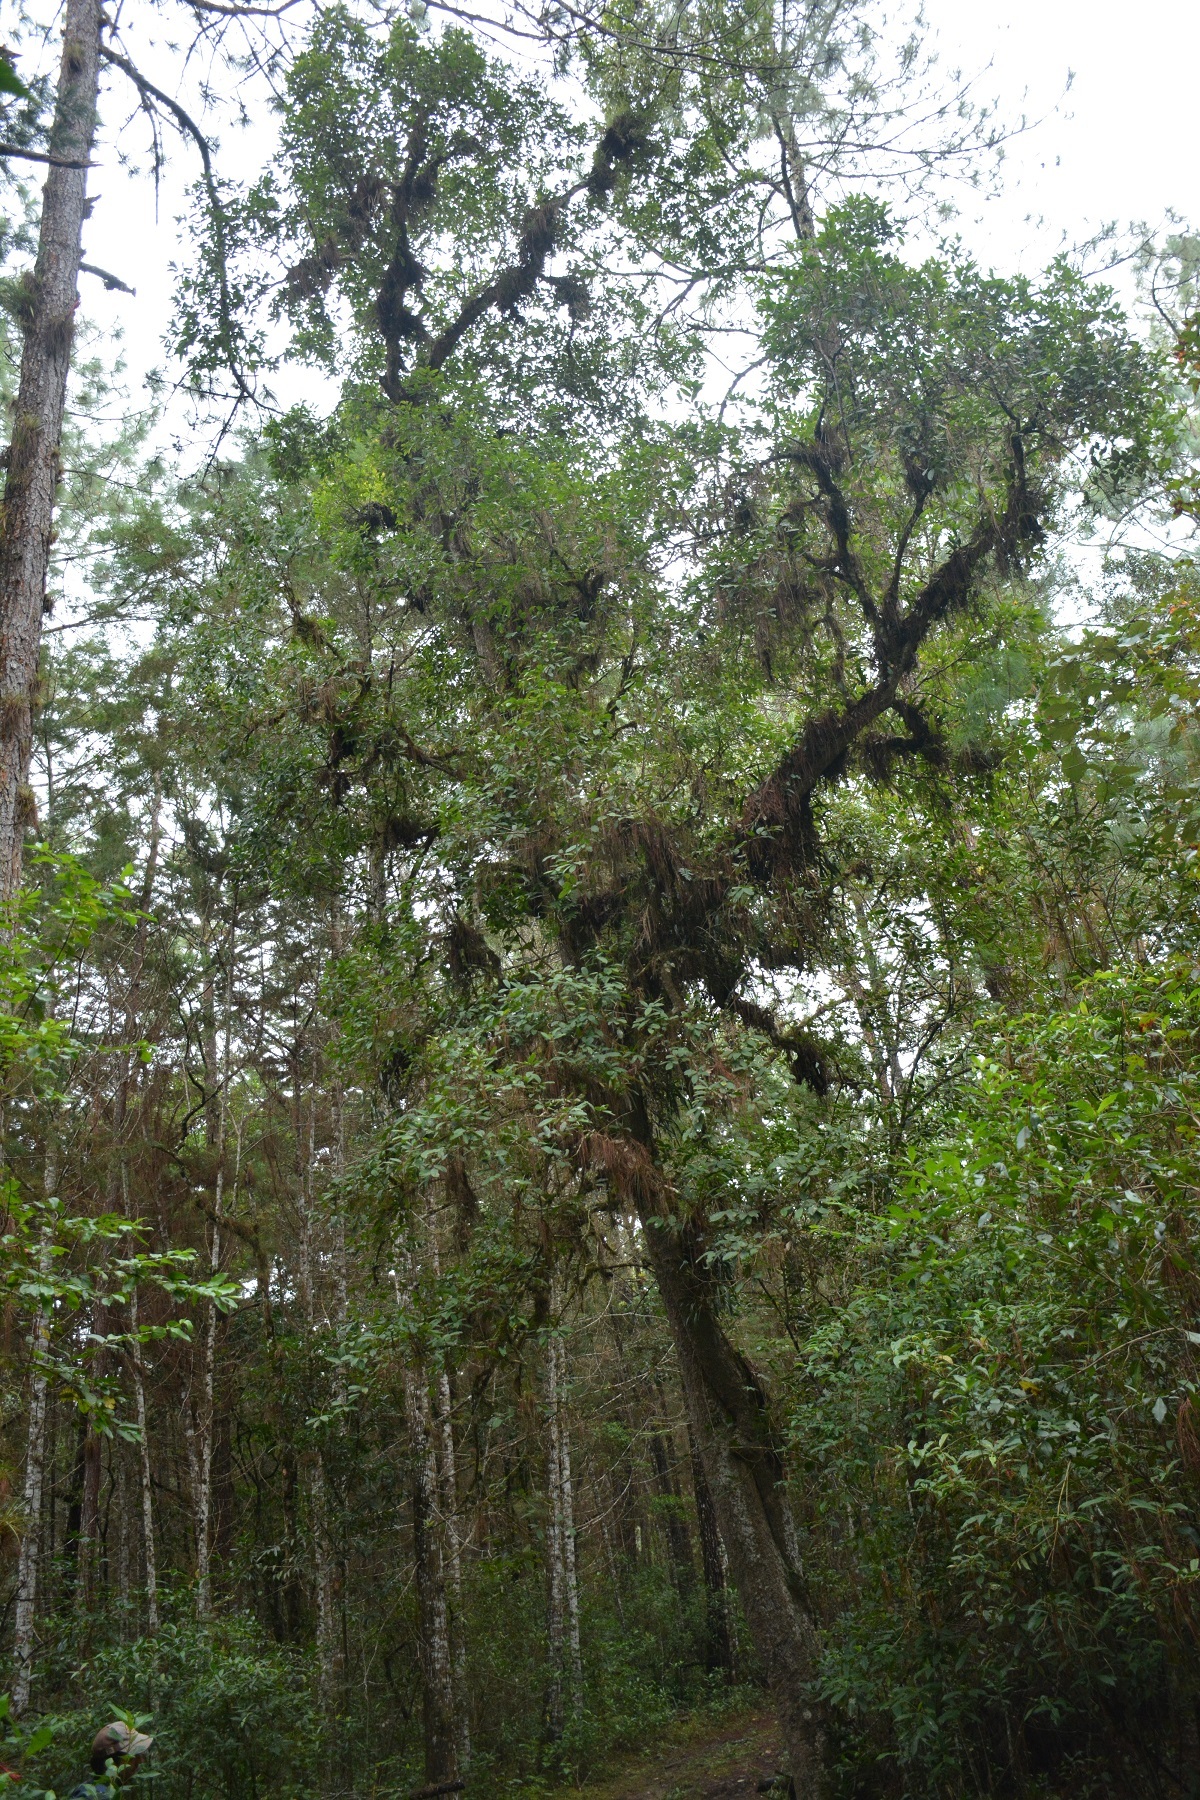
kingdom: Plantae
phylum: Tracheophyta
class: Magnoliopsida
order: Aquifoliales
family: Aquifoliaceae
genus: Ilex
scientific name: Ilex brandegeeana
